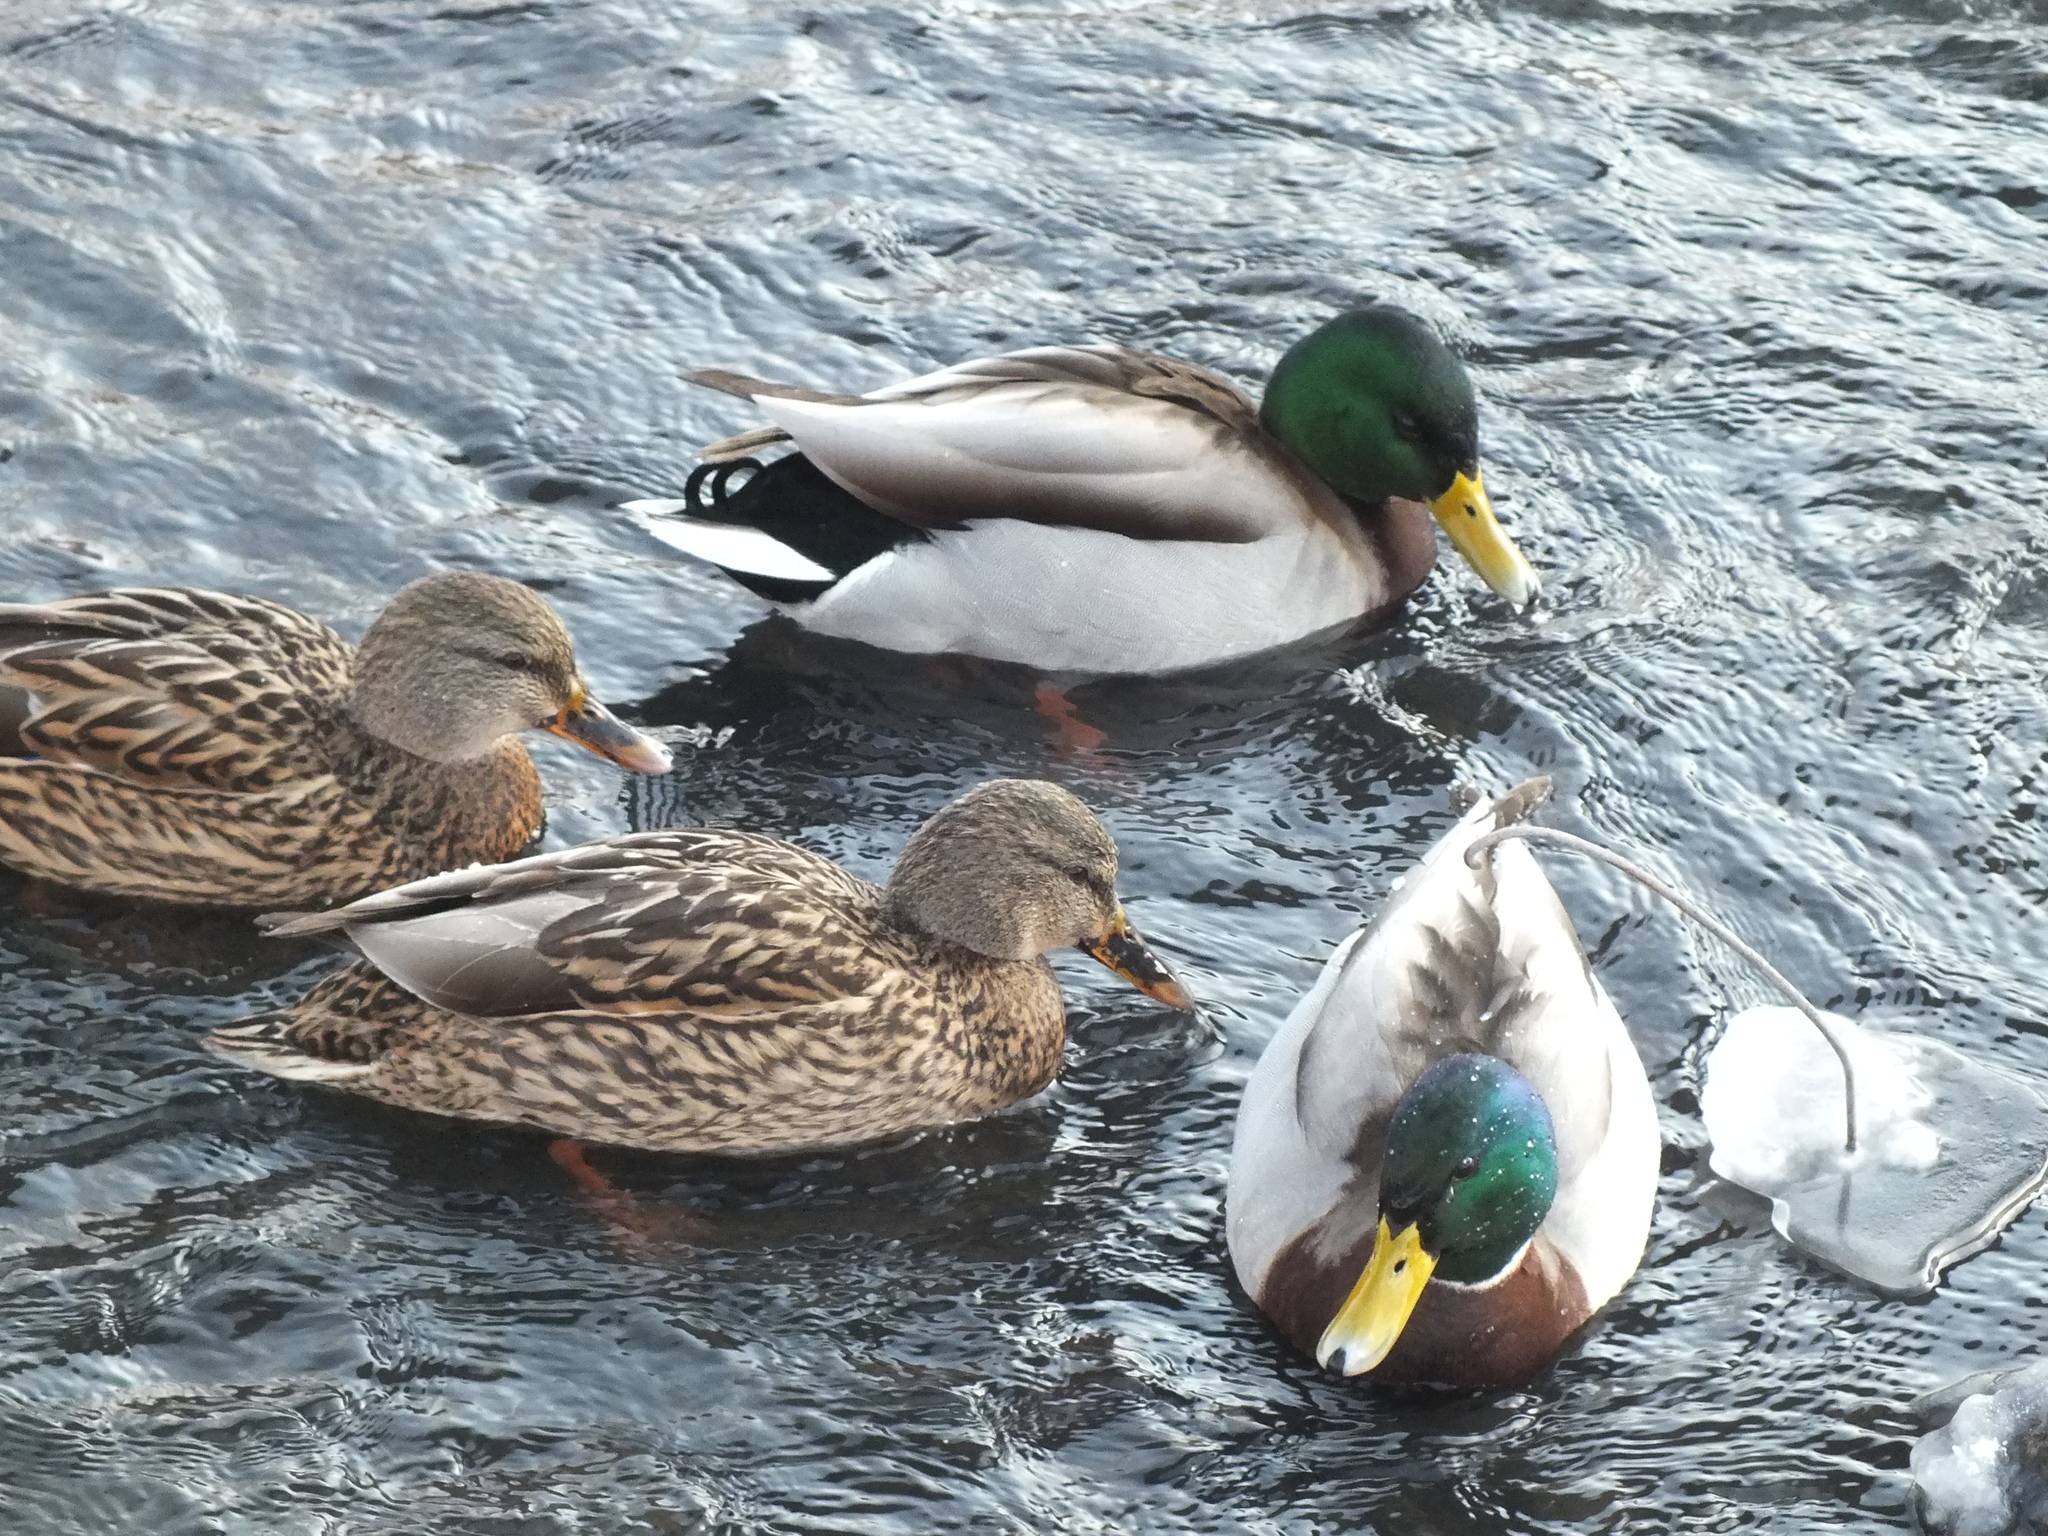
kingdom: Animalia
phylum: Chordata
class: Aves
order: Anseriformes
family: Anatidae
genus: Anas
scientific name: Anas platyrhynchos
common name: Mallard
